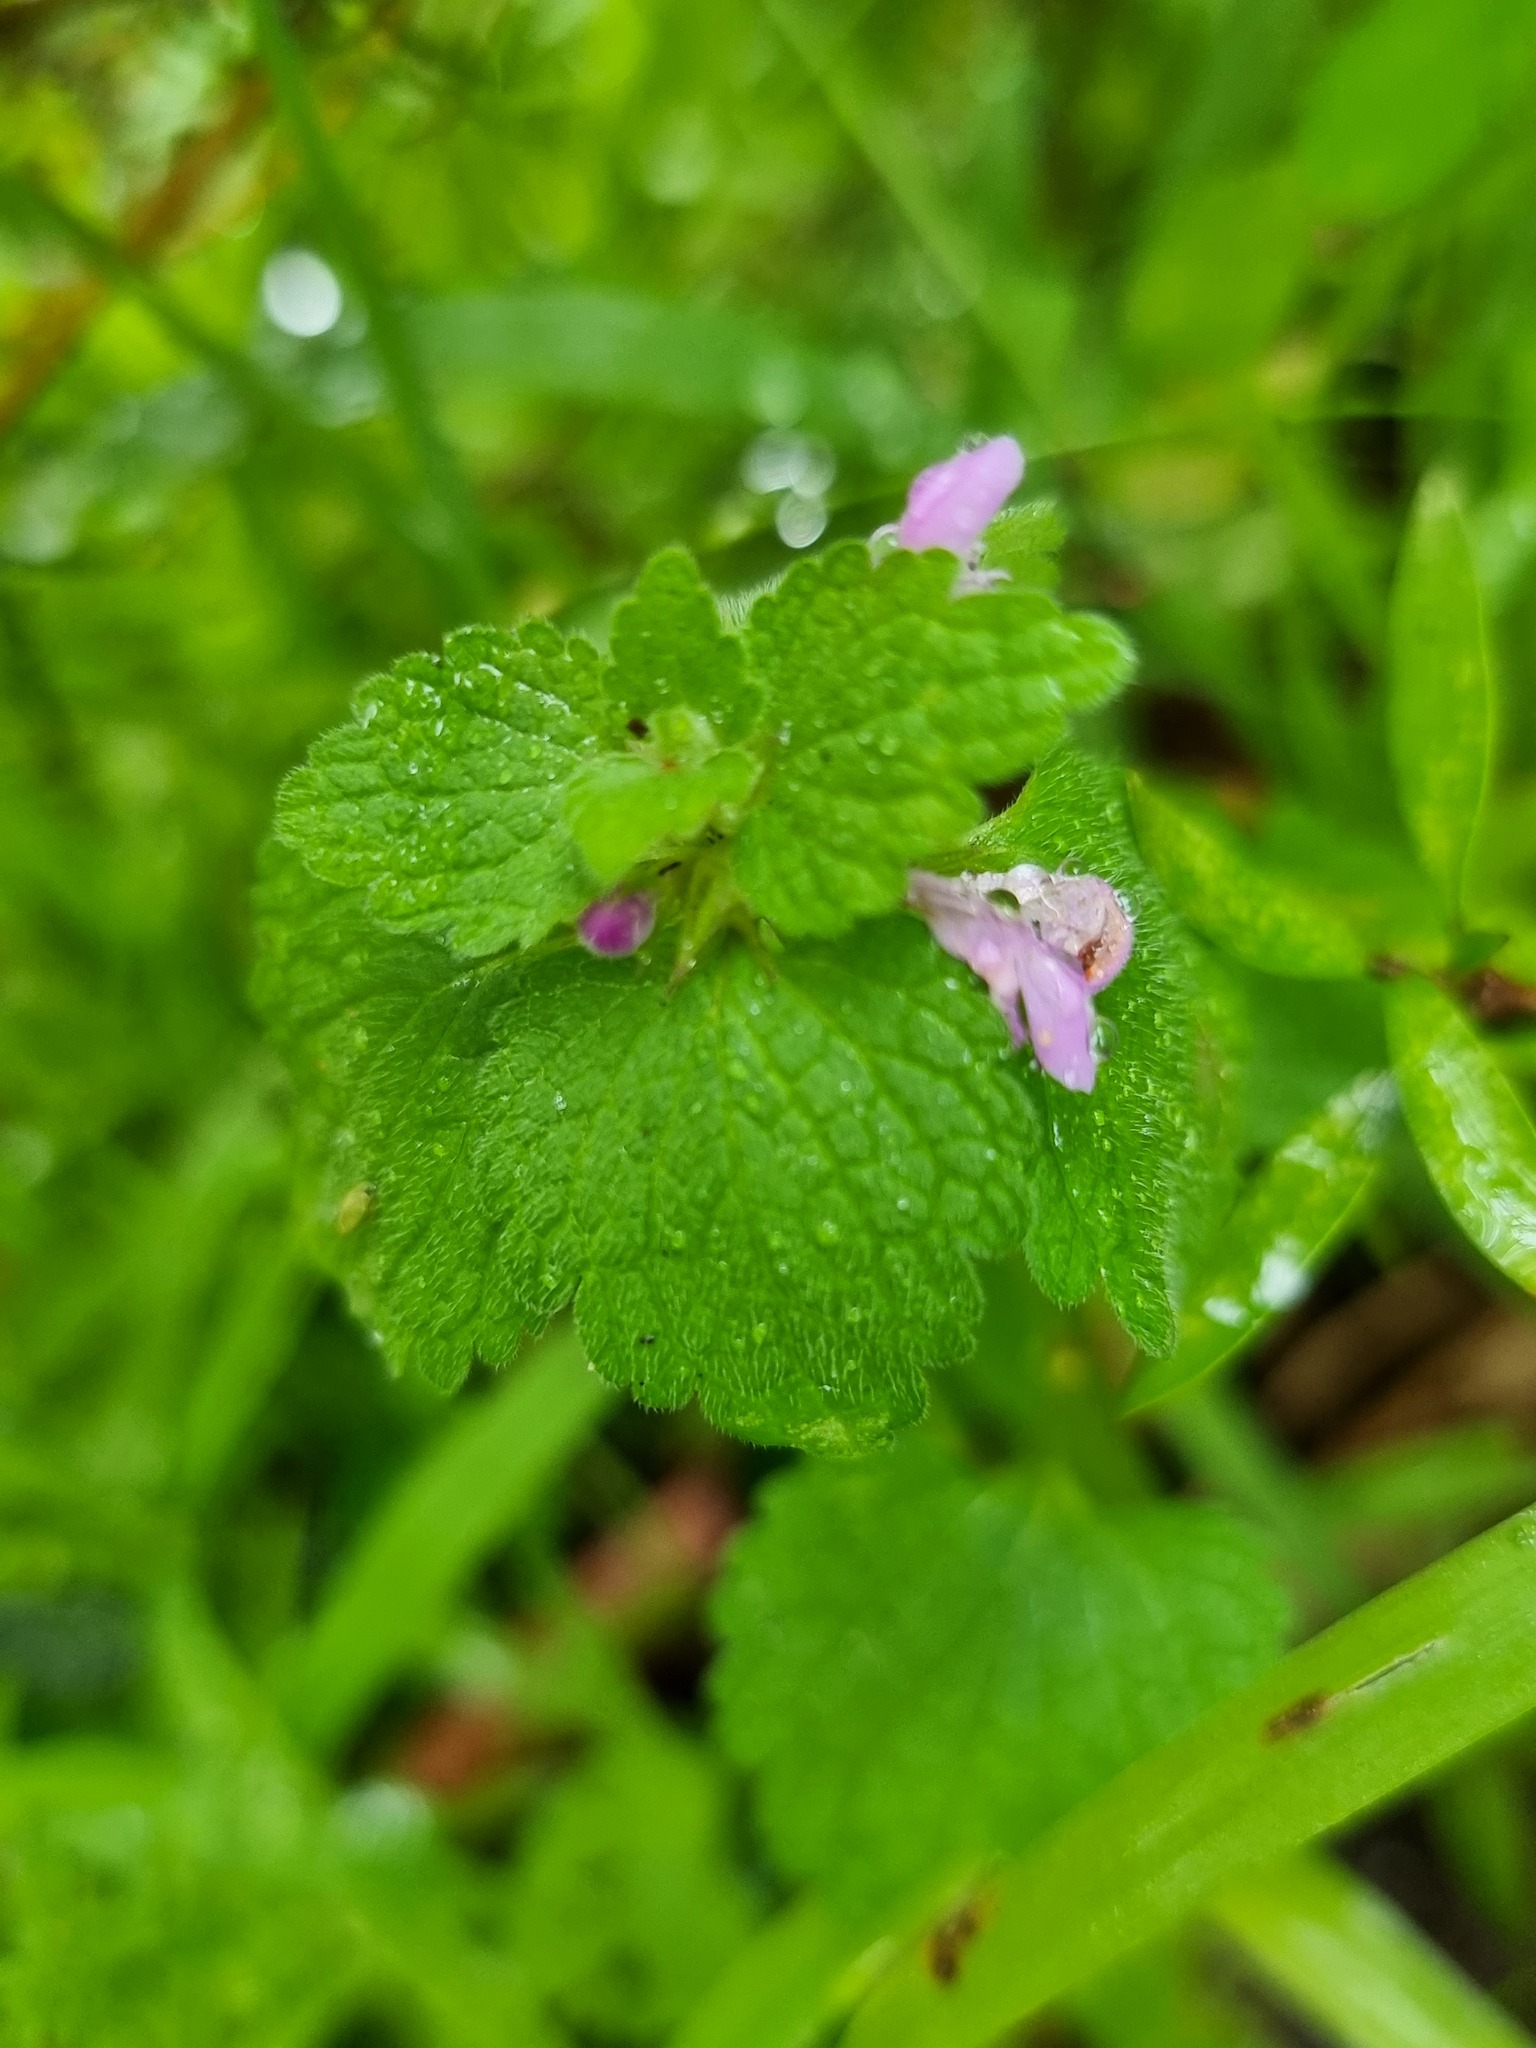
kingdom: Plantae
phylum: Tracheophyta
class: Magnoliopsida
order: Lamiales
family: Lamiaceae
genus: Lamium
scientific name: Lamium purpureum
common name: Red dead-nettle
